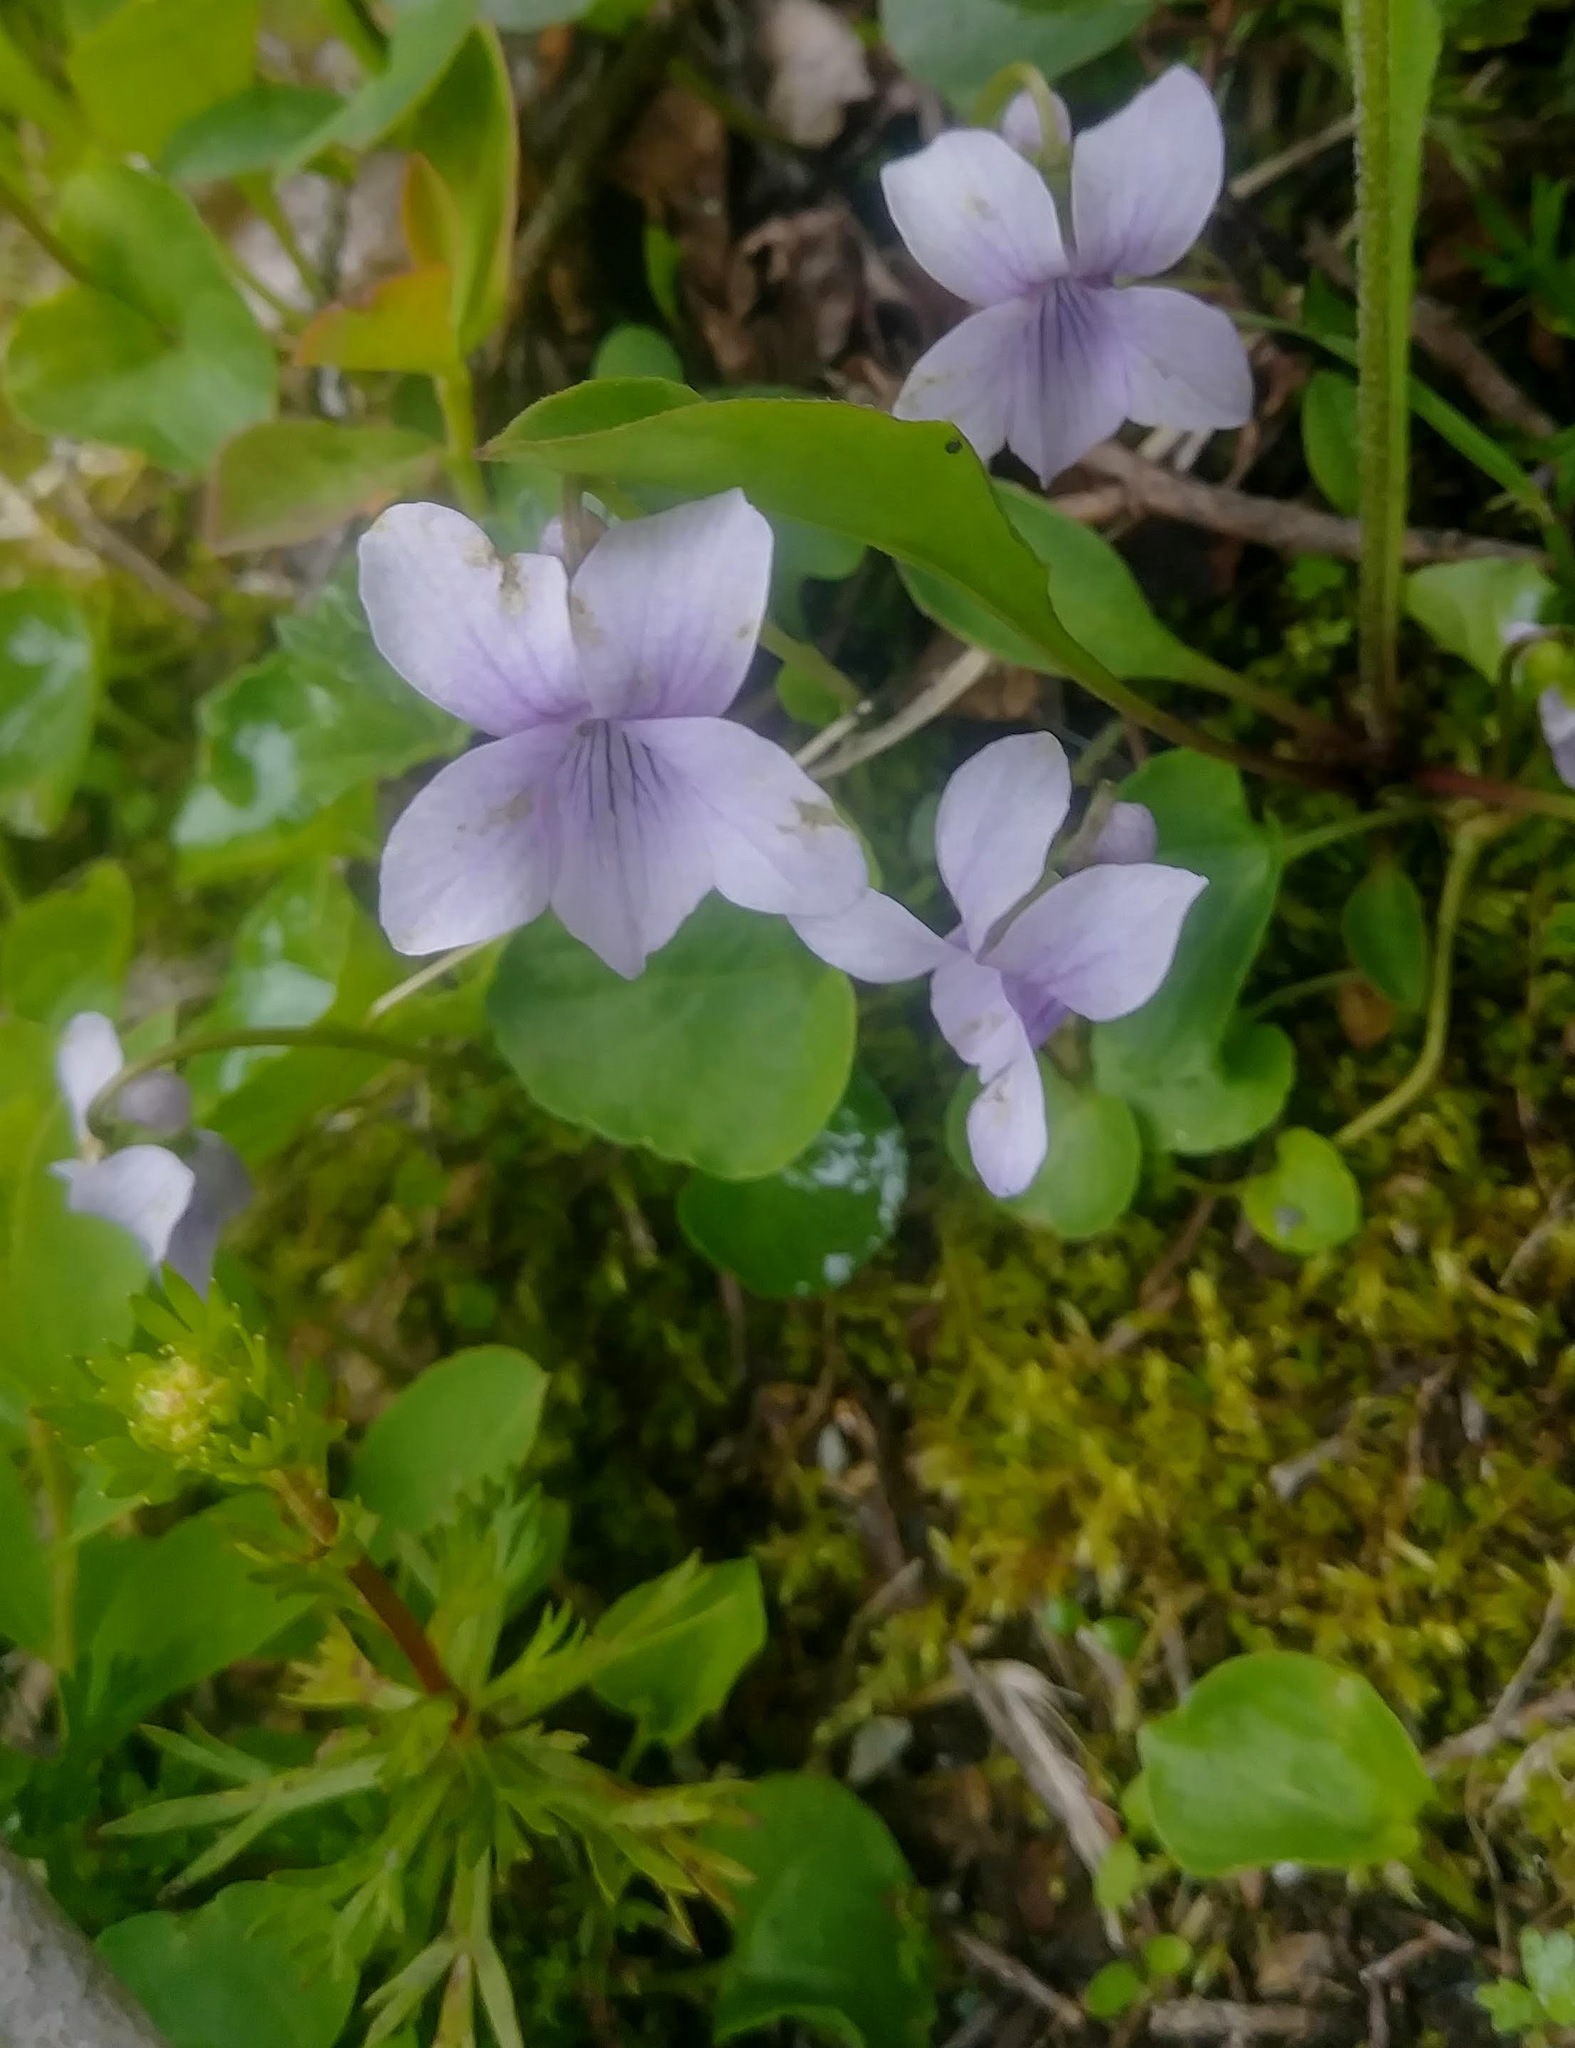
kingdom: Plantae
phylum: Tracheophyta
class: Magnoliopsida
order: Malpighiales
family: Violaceae
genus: Viola
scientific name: Viola palustris
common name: Marsh violet
